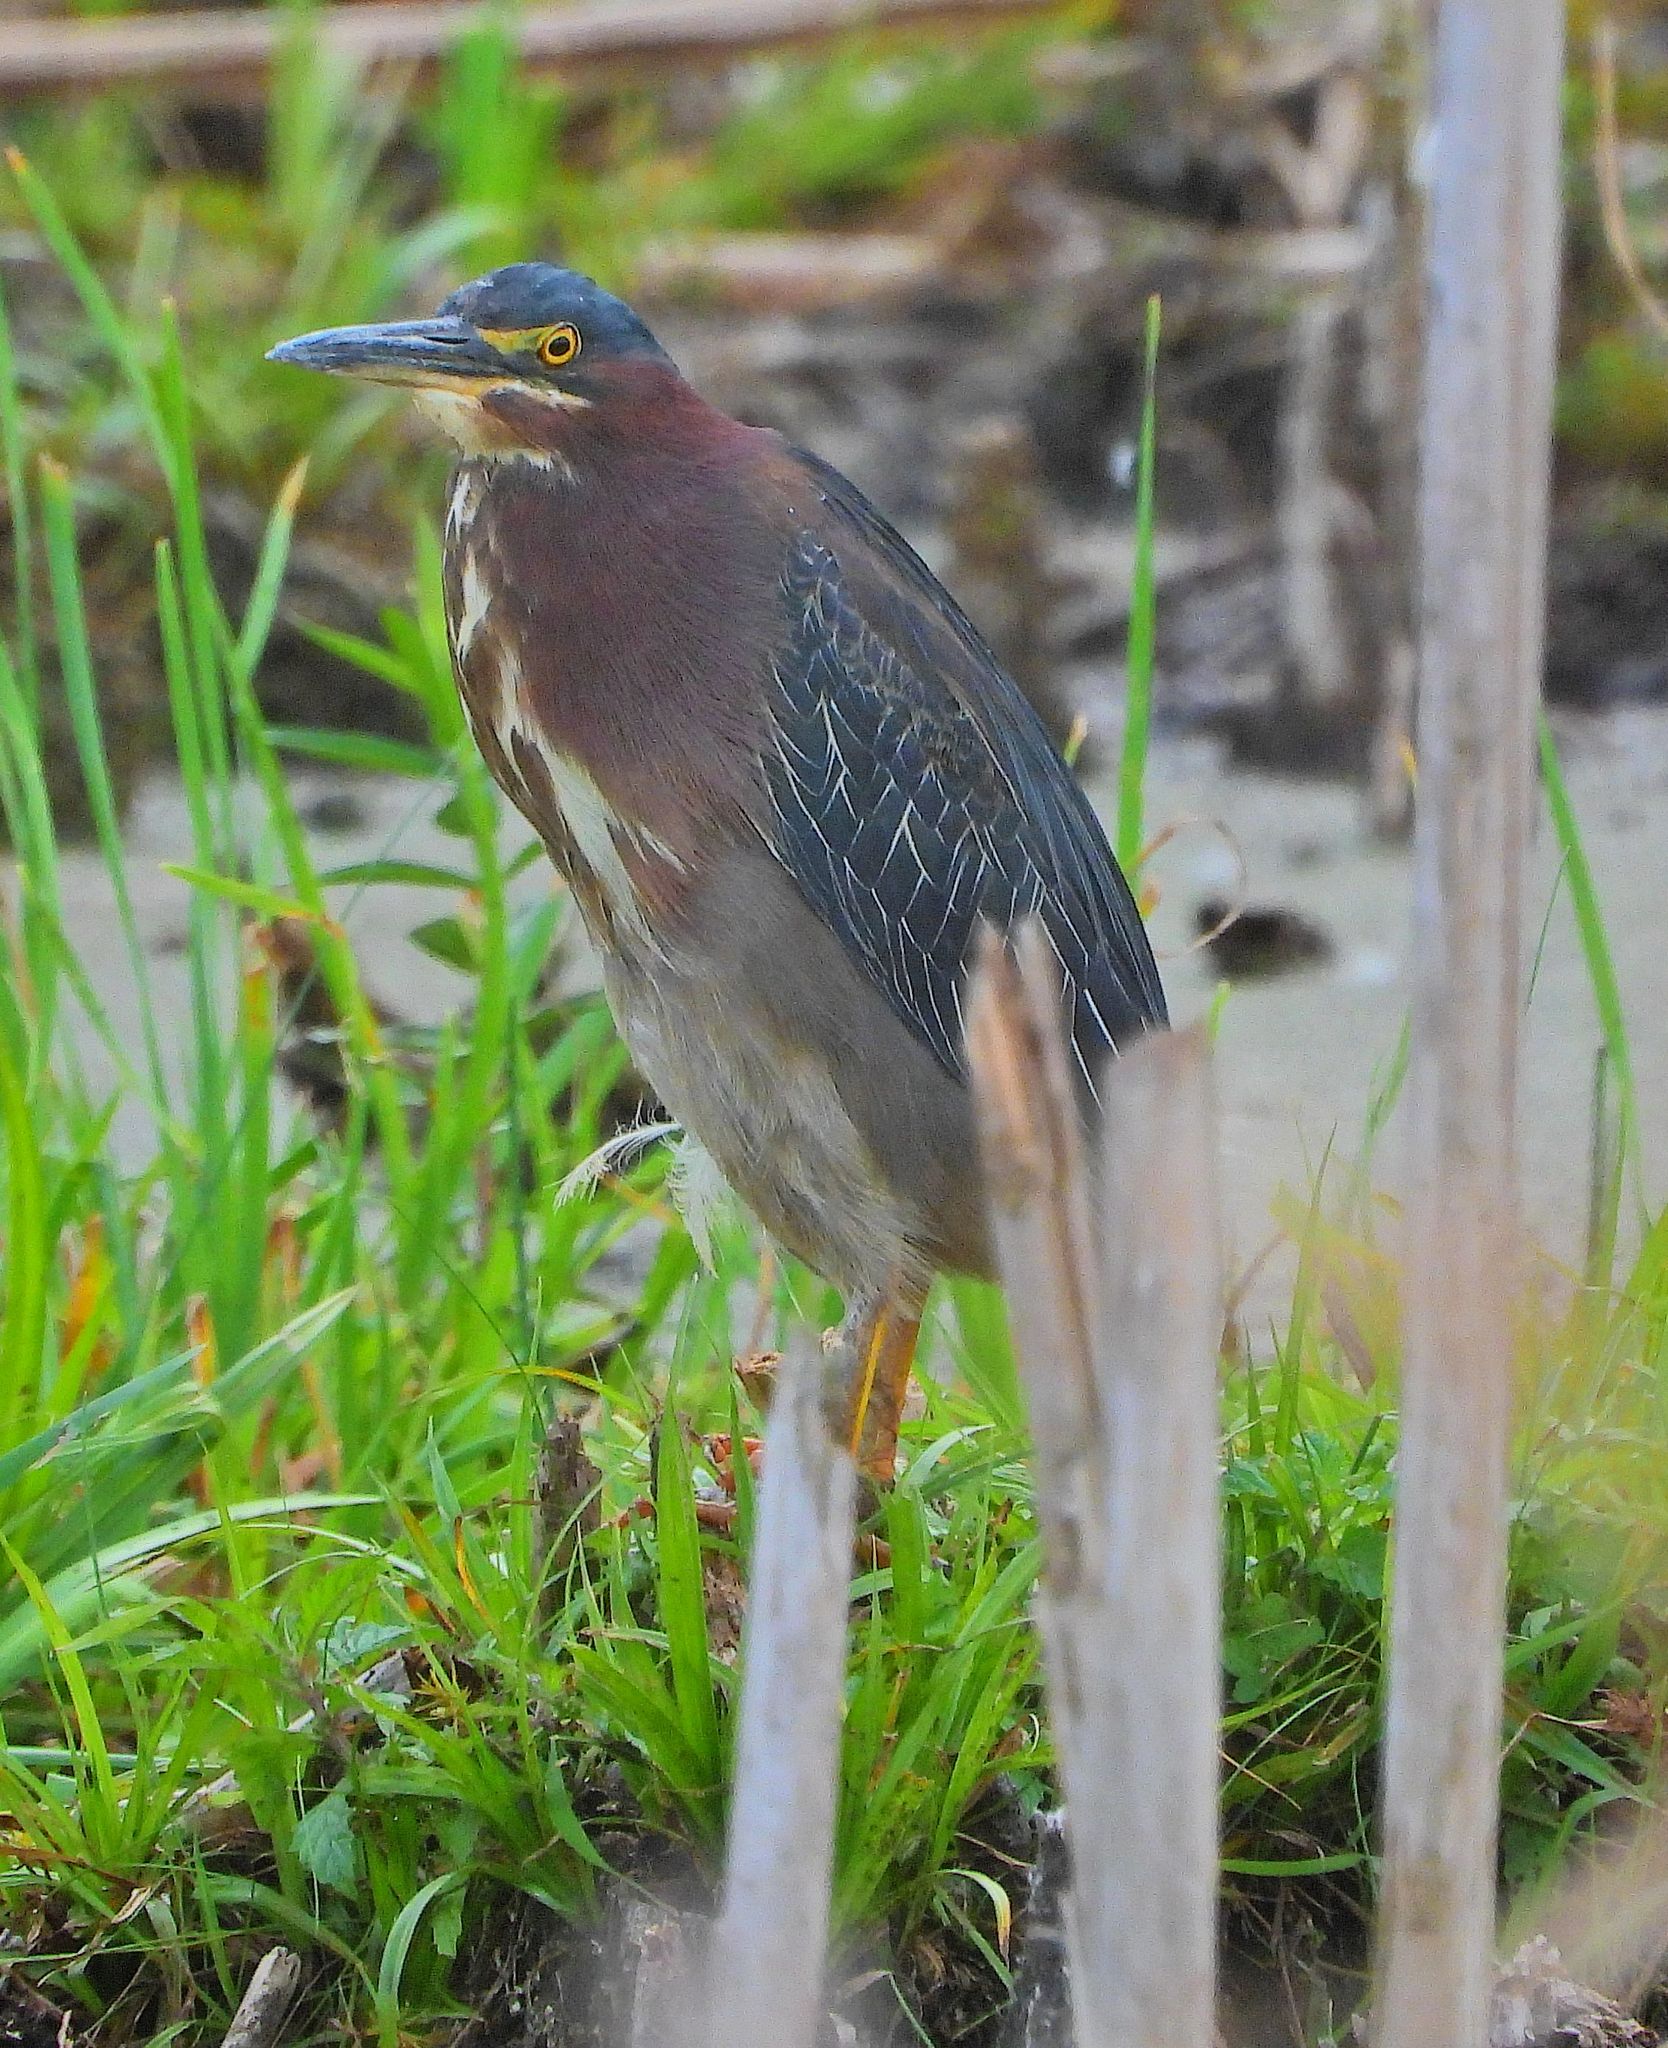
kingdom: Animalia
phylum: Chordata
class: Aves
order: Pelecaniformes
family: Ardeidae
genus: Butorides
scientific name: Butorides virescens
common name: Green heron
